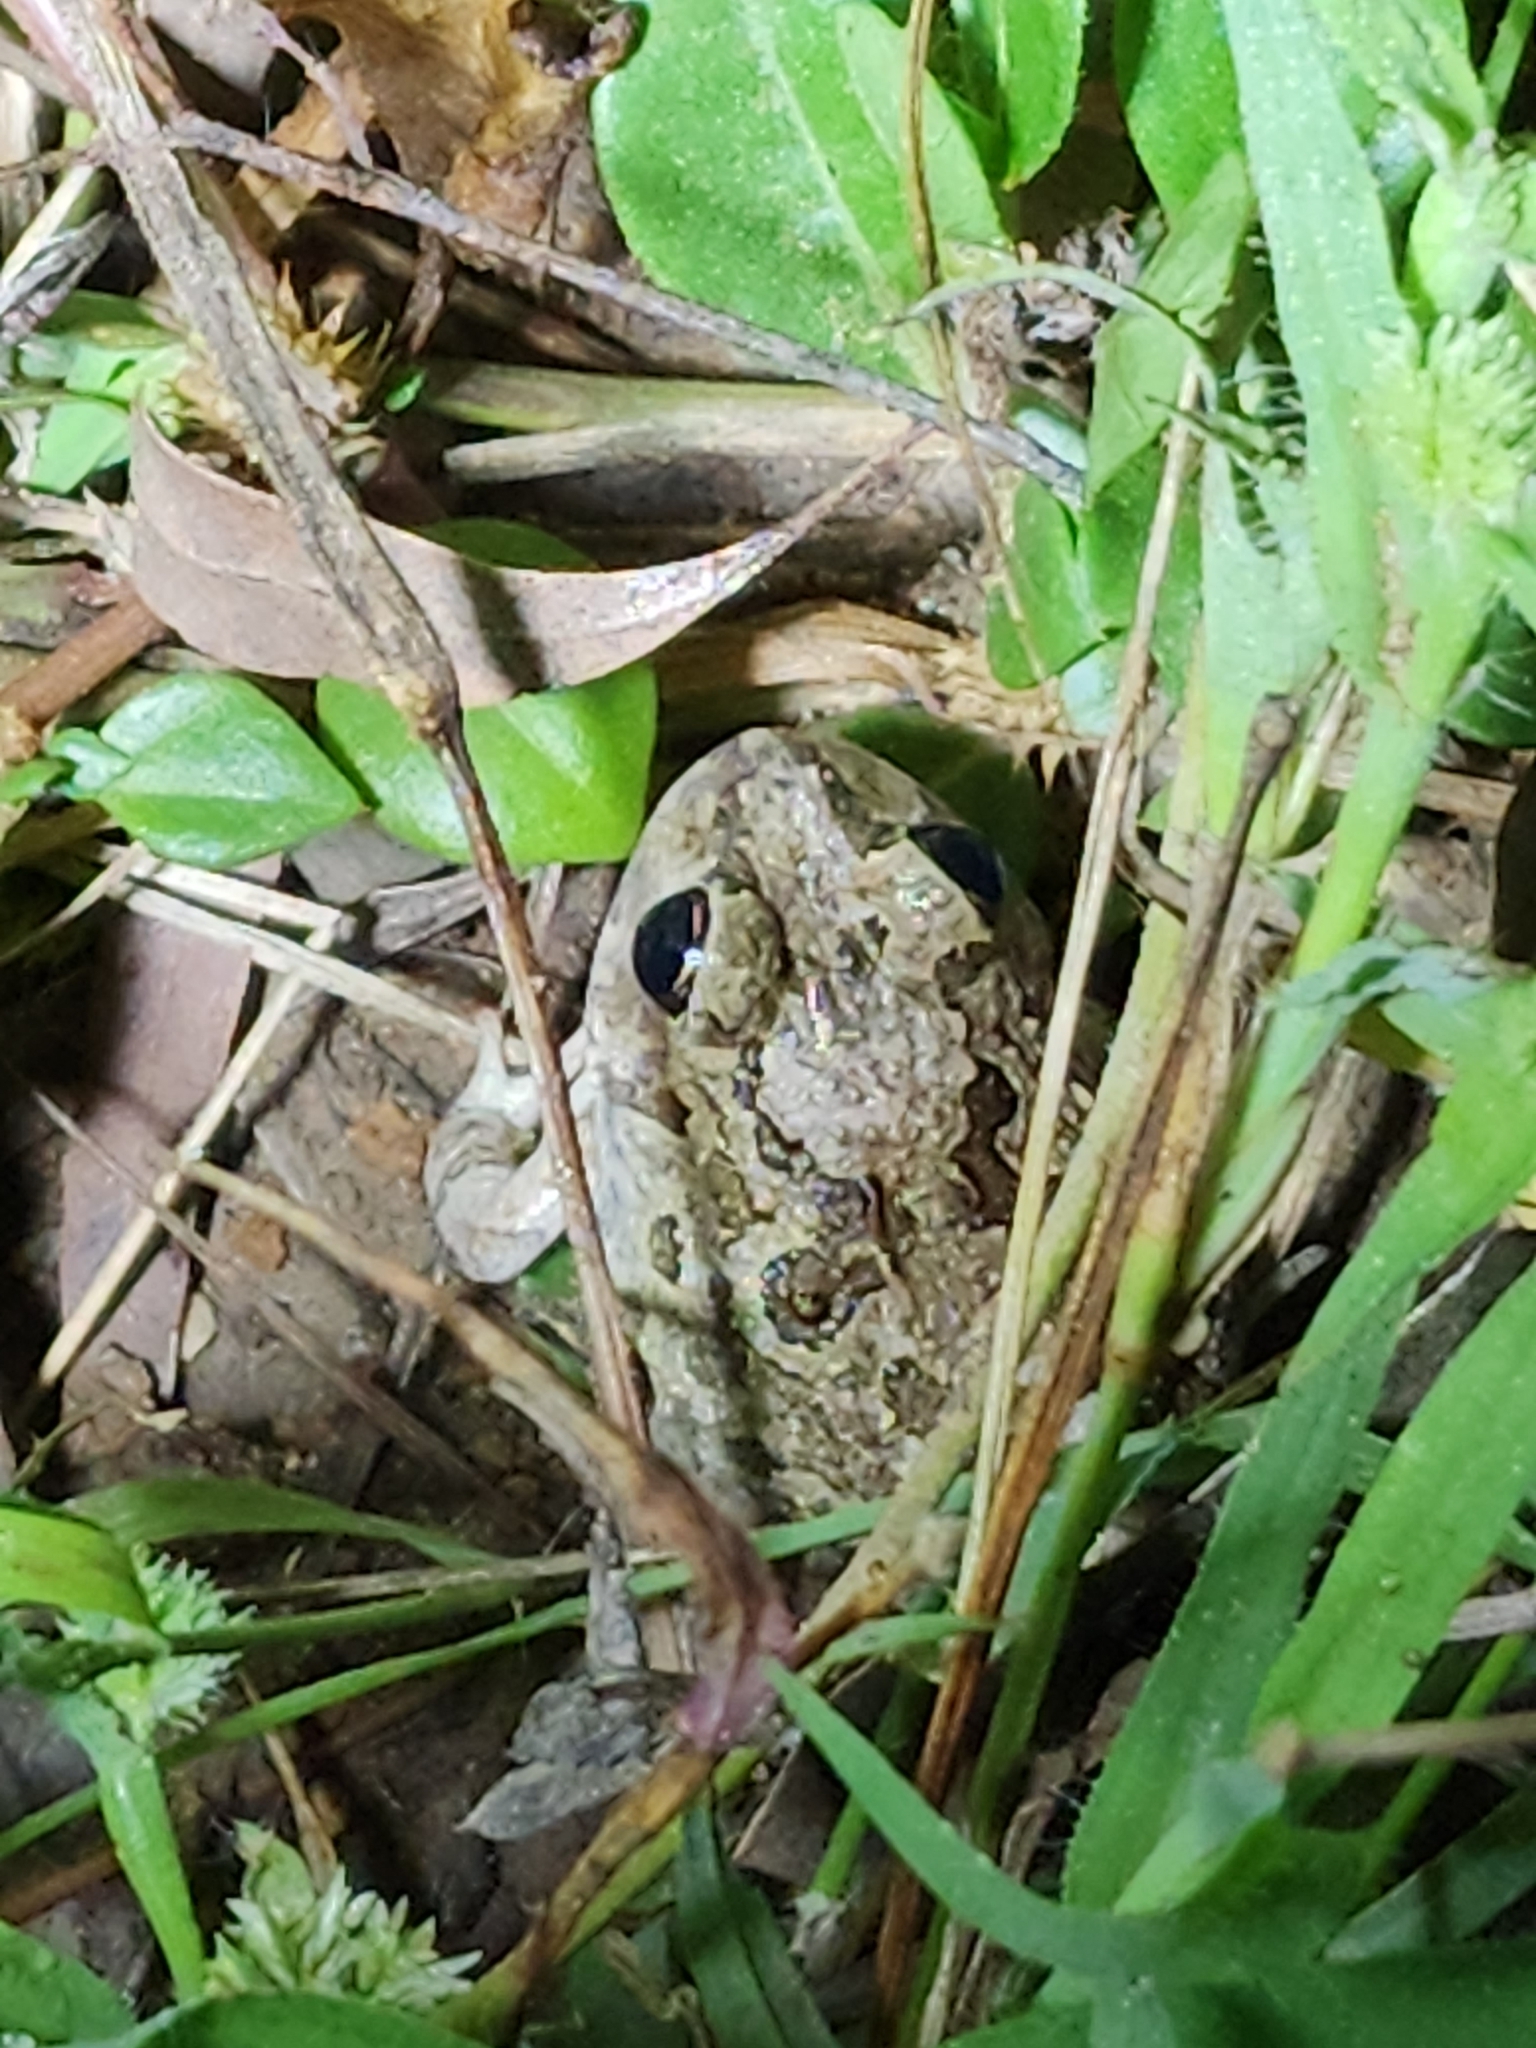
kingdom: Animalia
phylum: Chordata
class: Amphibia
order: Anura
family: Limnodynastidae
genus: Platyplectrum
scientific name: Platyplectrum ornatum
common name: Ornate burrowing frog
